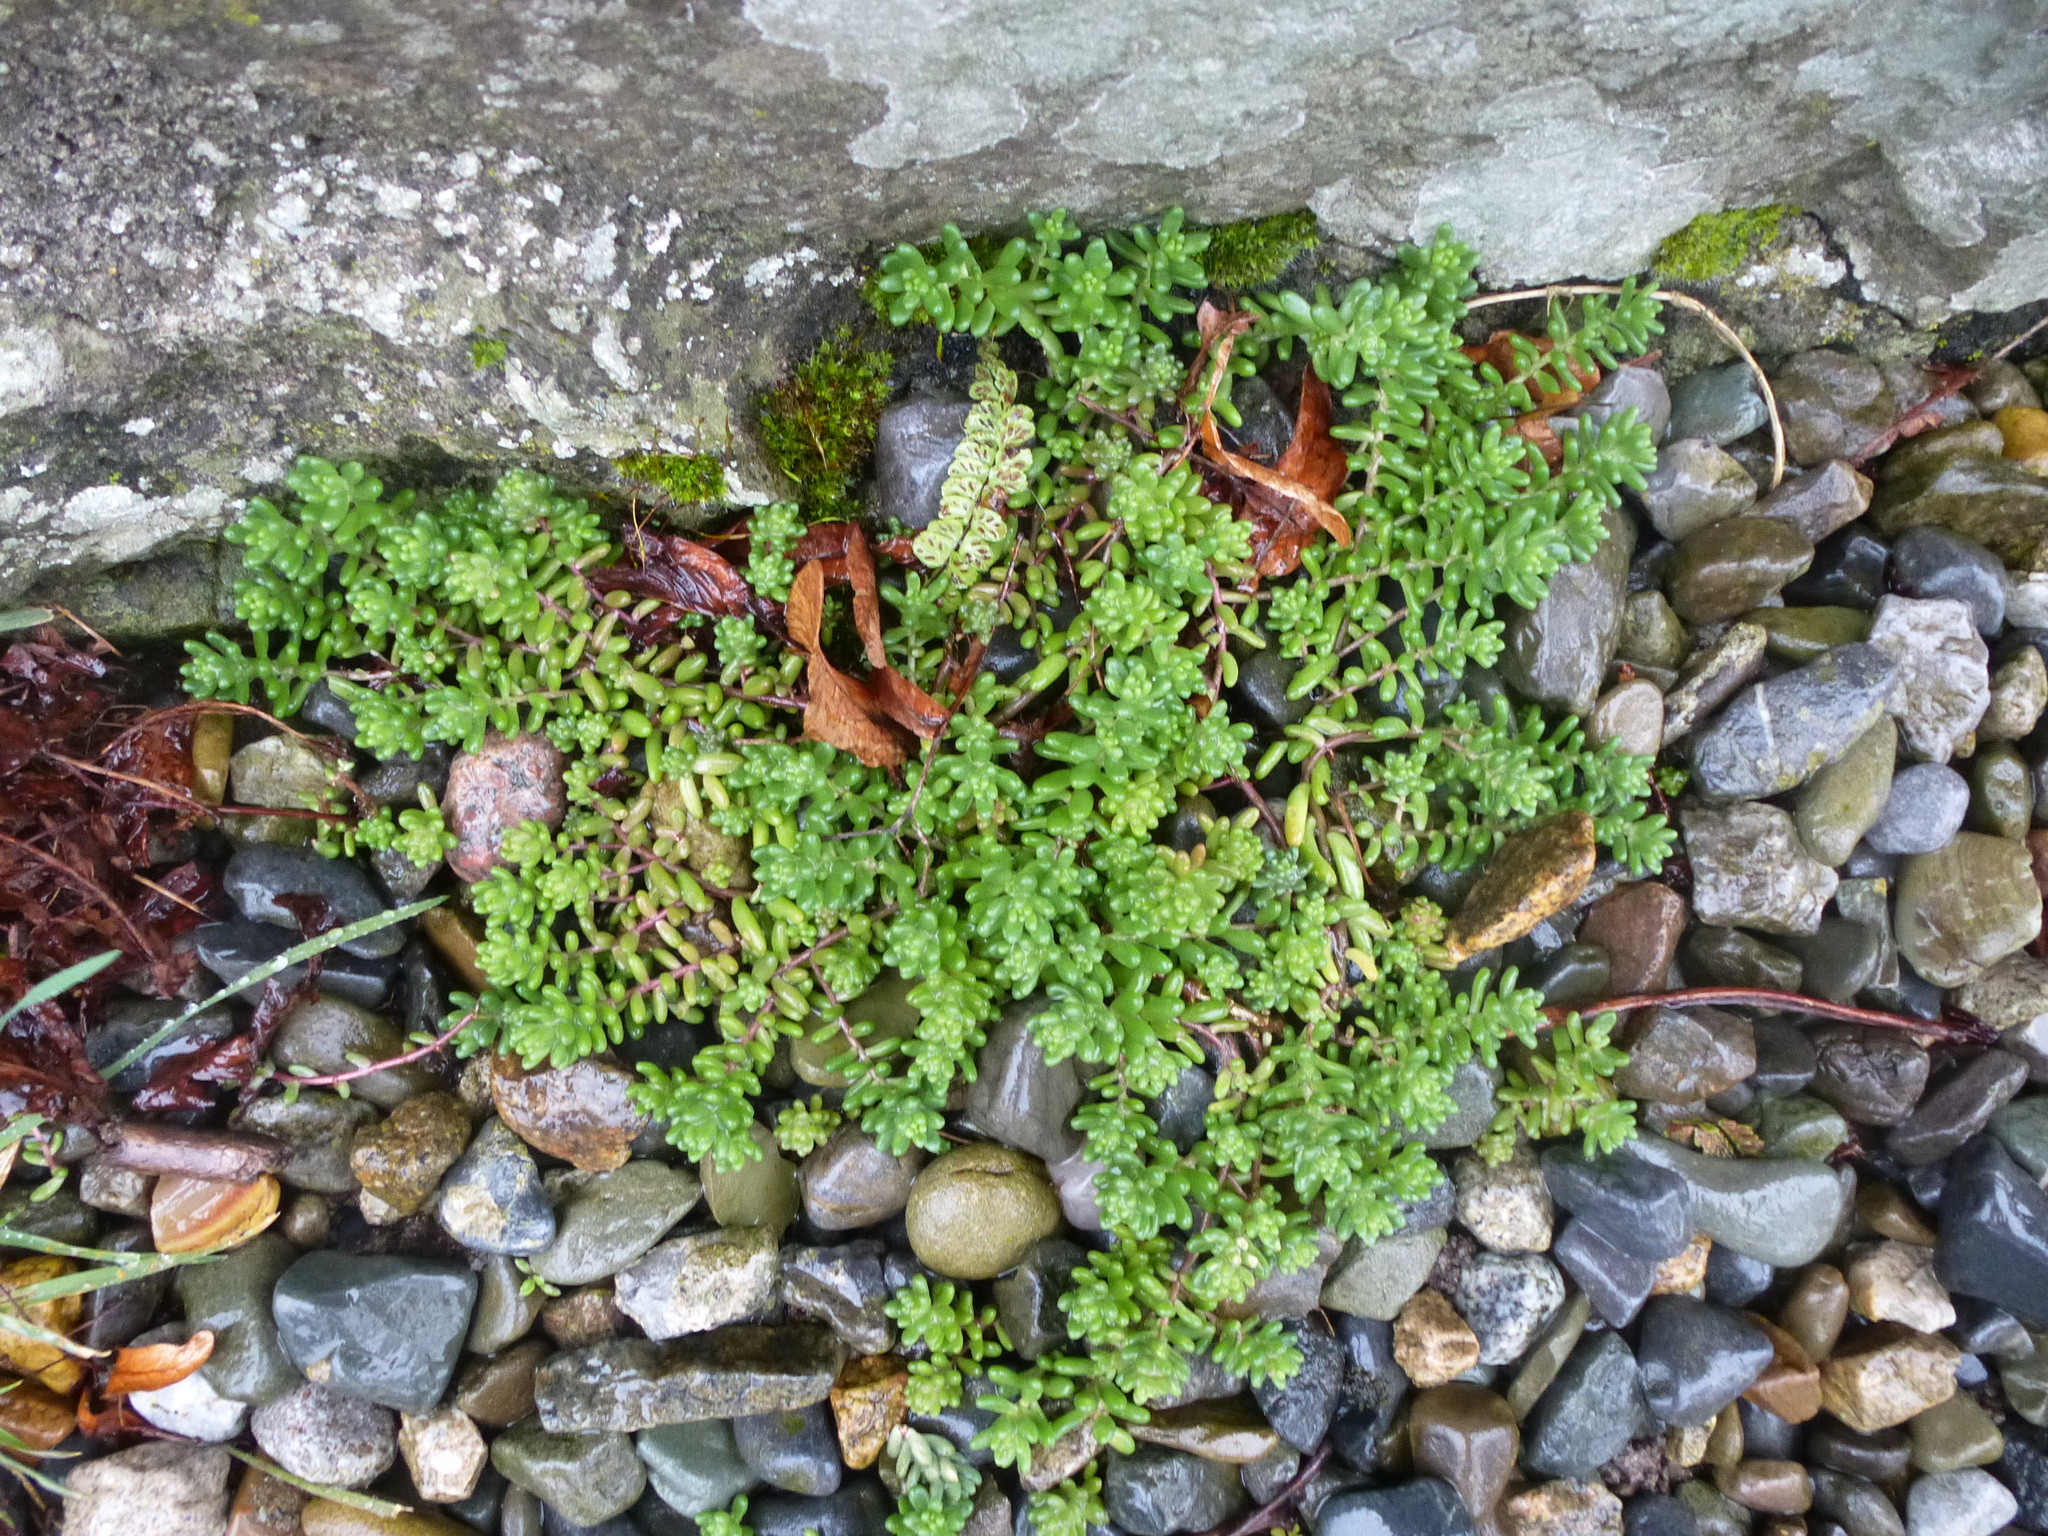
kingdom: Plantae
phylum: Tracheophyta
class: Magnoliopsida
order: Saxifragales
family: Crassulaceae
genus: Sedum
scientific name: Sedum album
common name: White stonecrop
